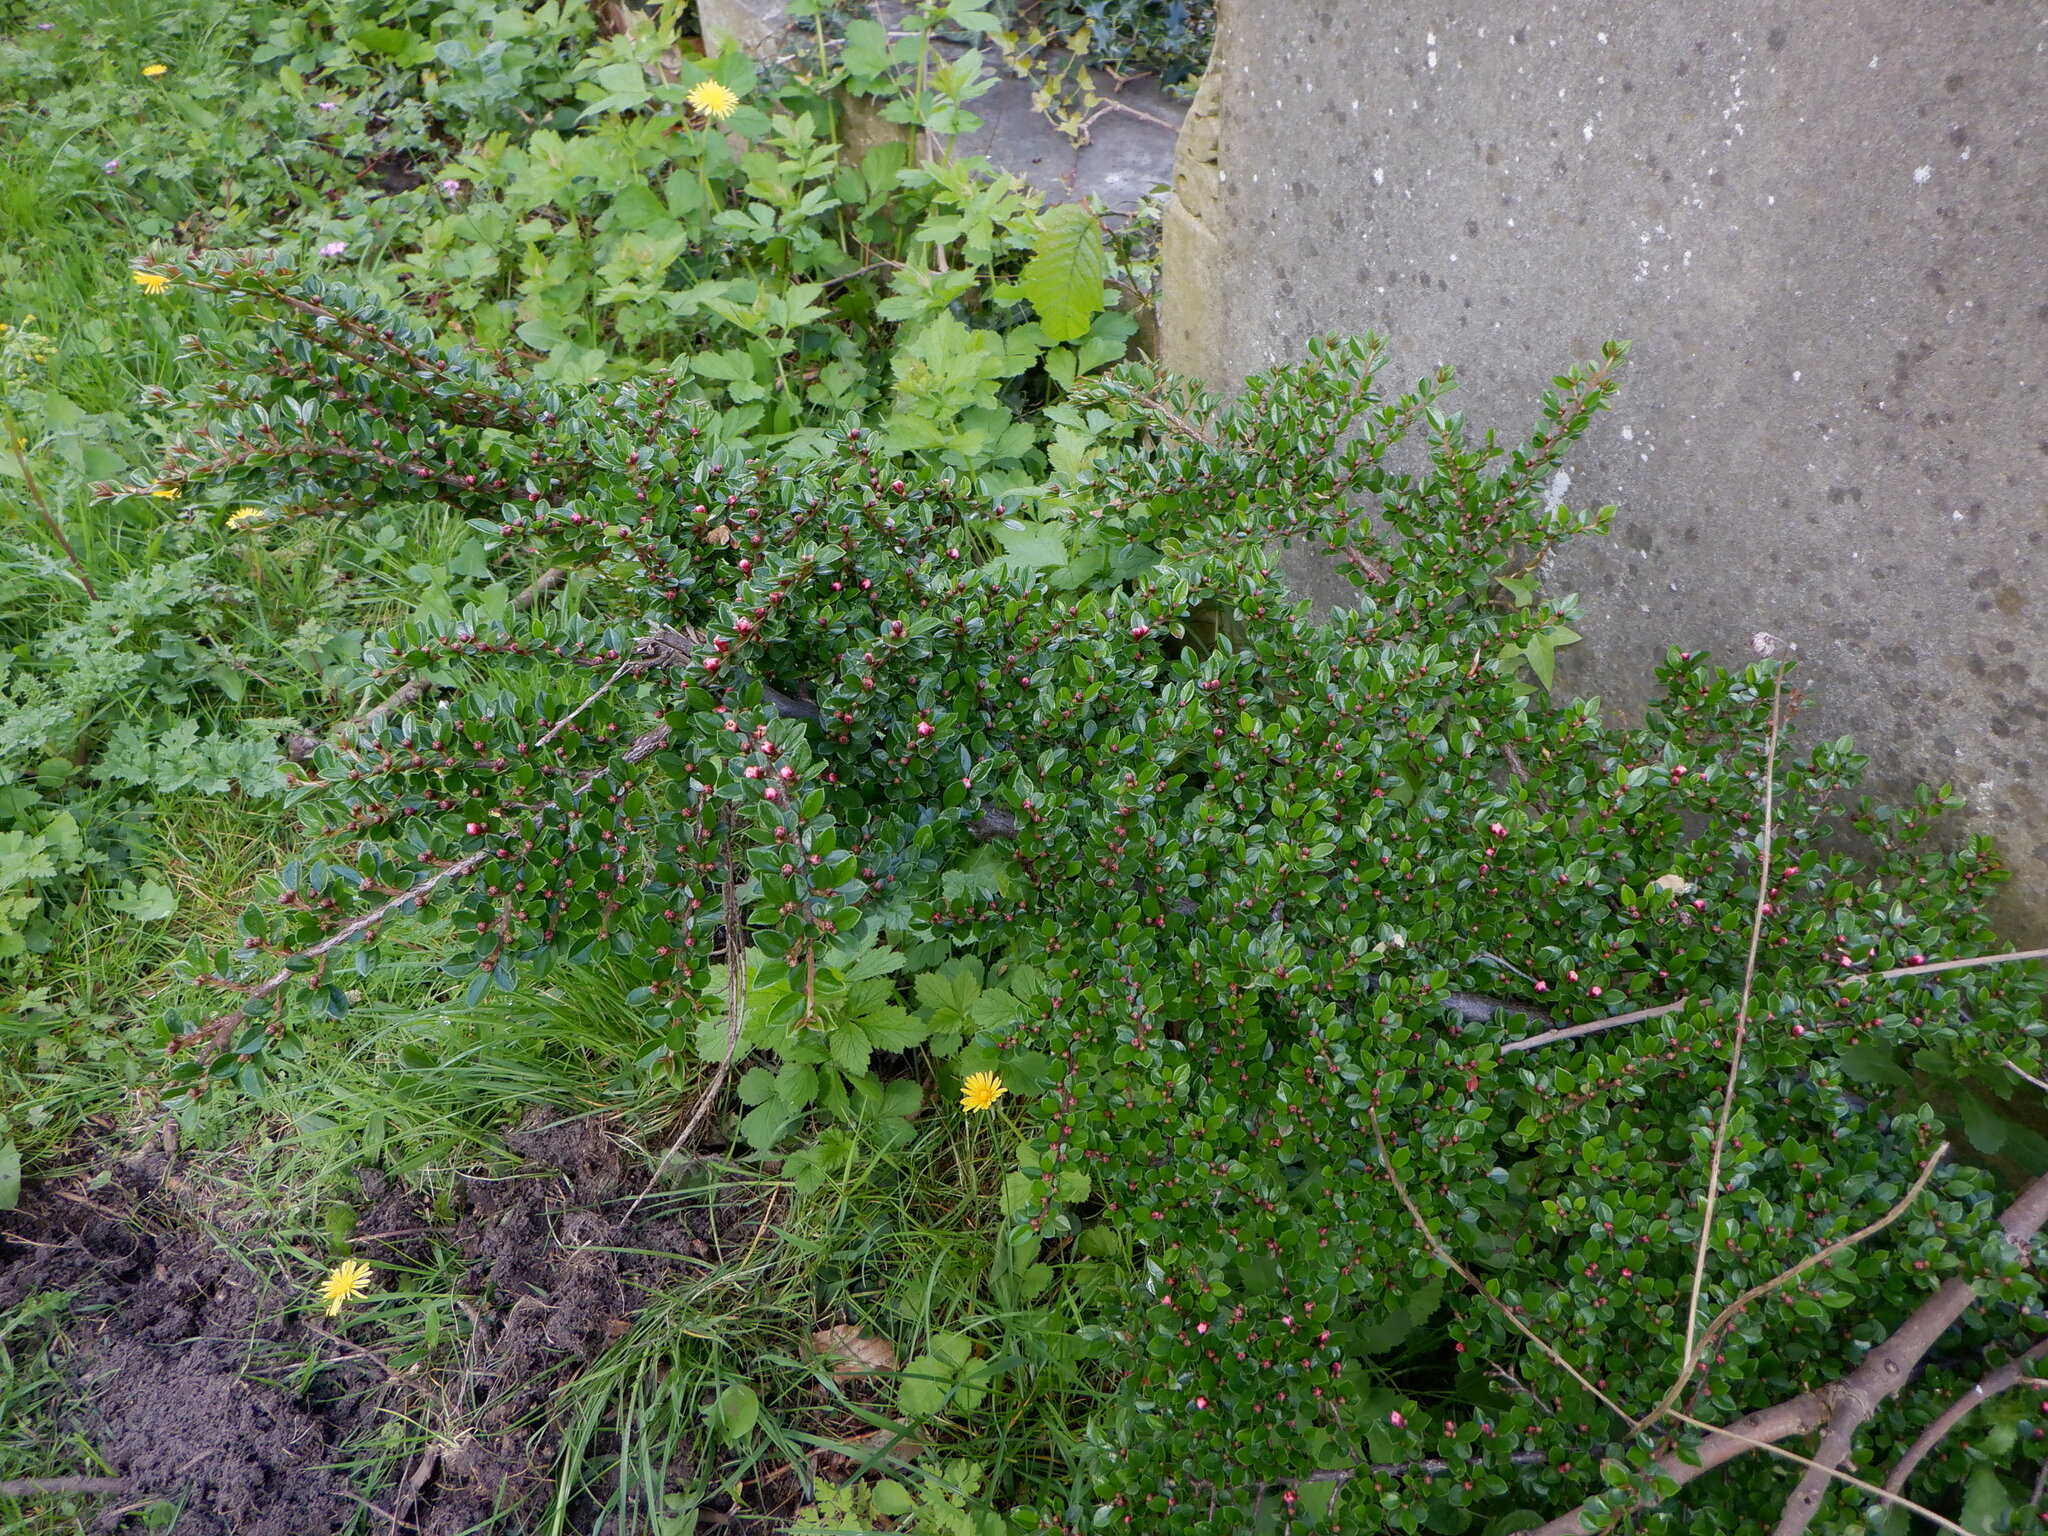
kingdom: Plantae
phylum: Tracheophyta
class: Magnoliopsida
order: Rosales
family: Rosaceae
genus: Cotoneaster
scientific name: Cotoneaster horizontalis
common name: Wall cotoneaster
